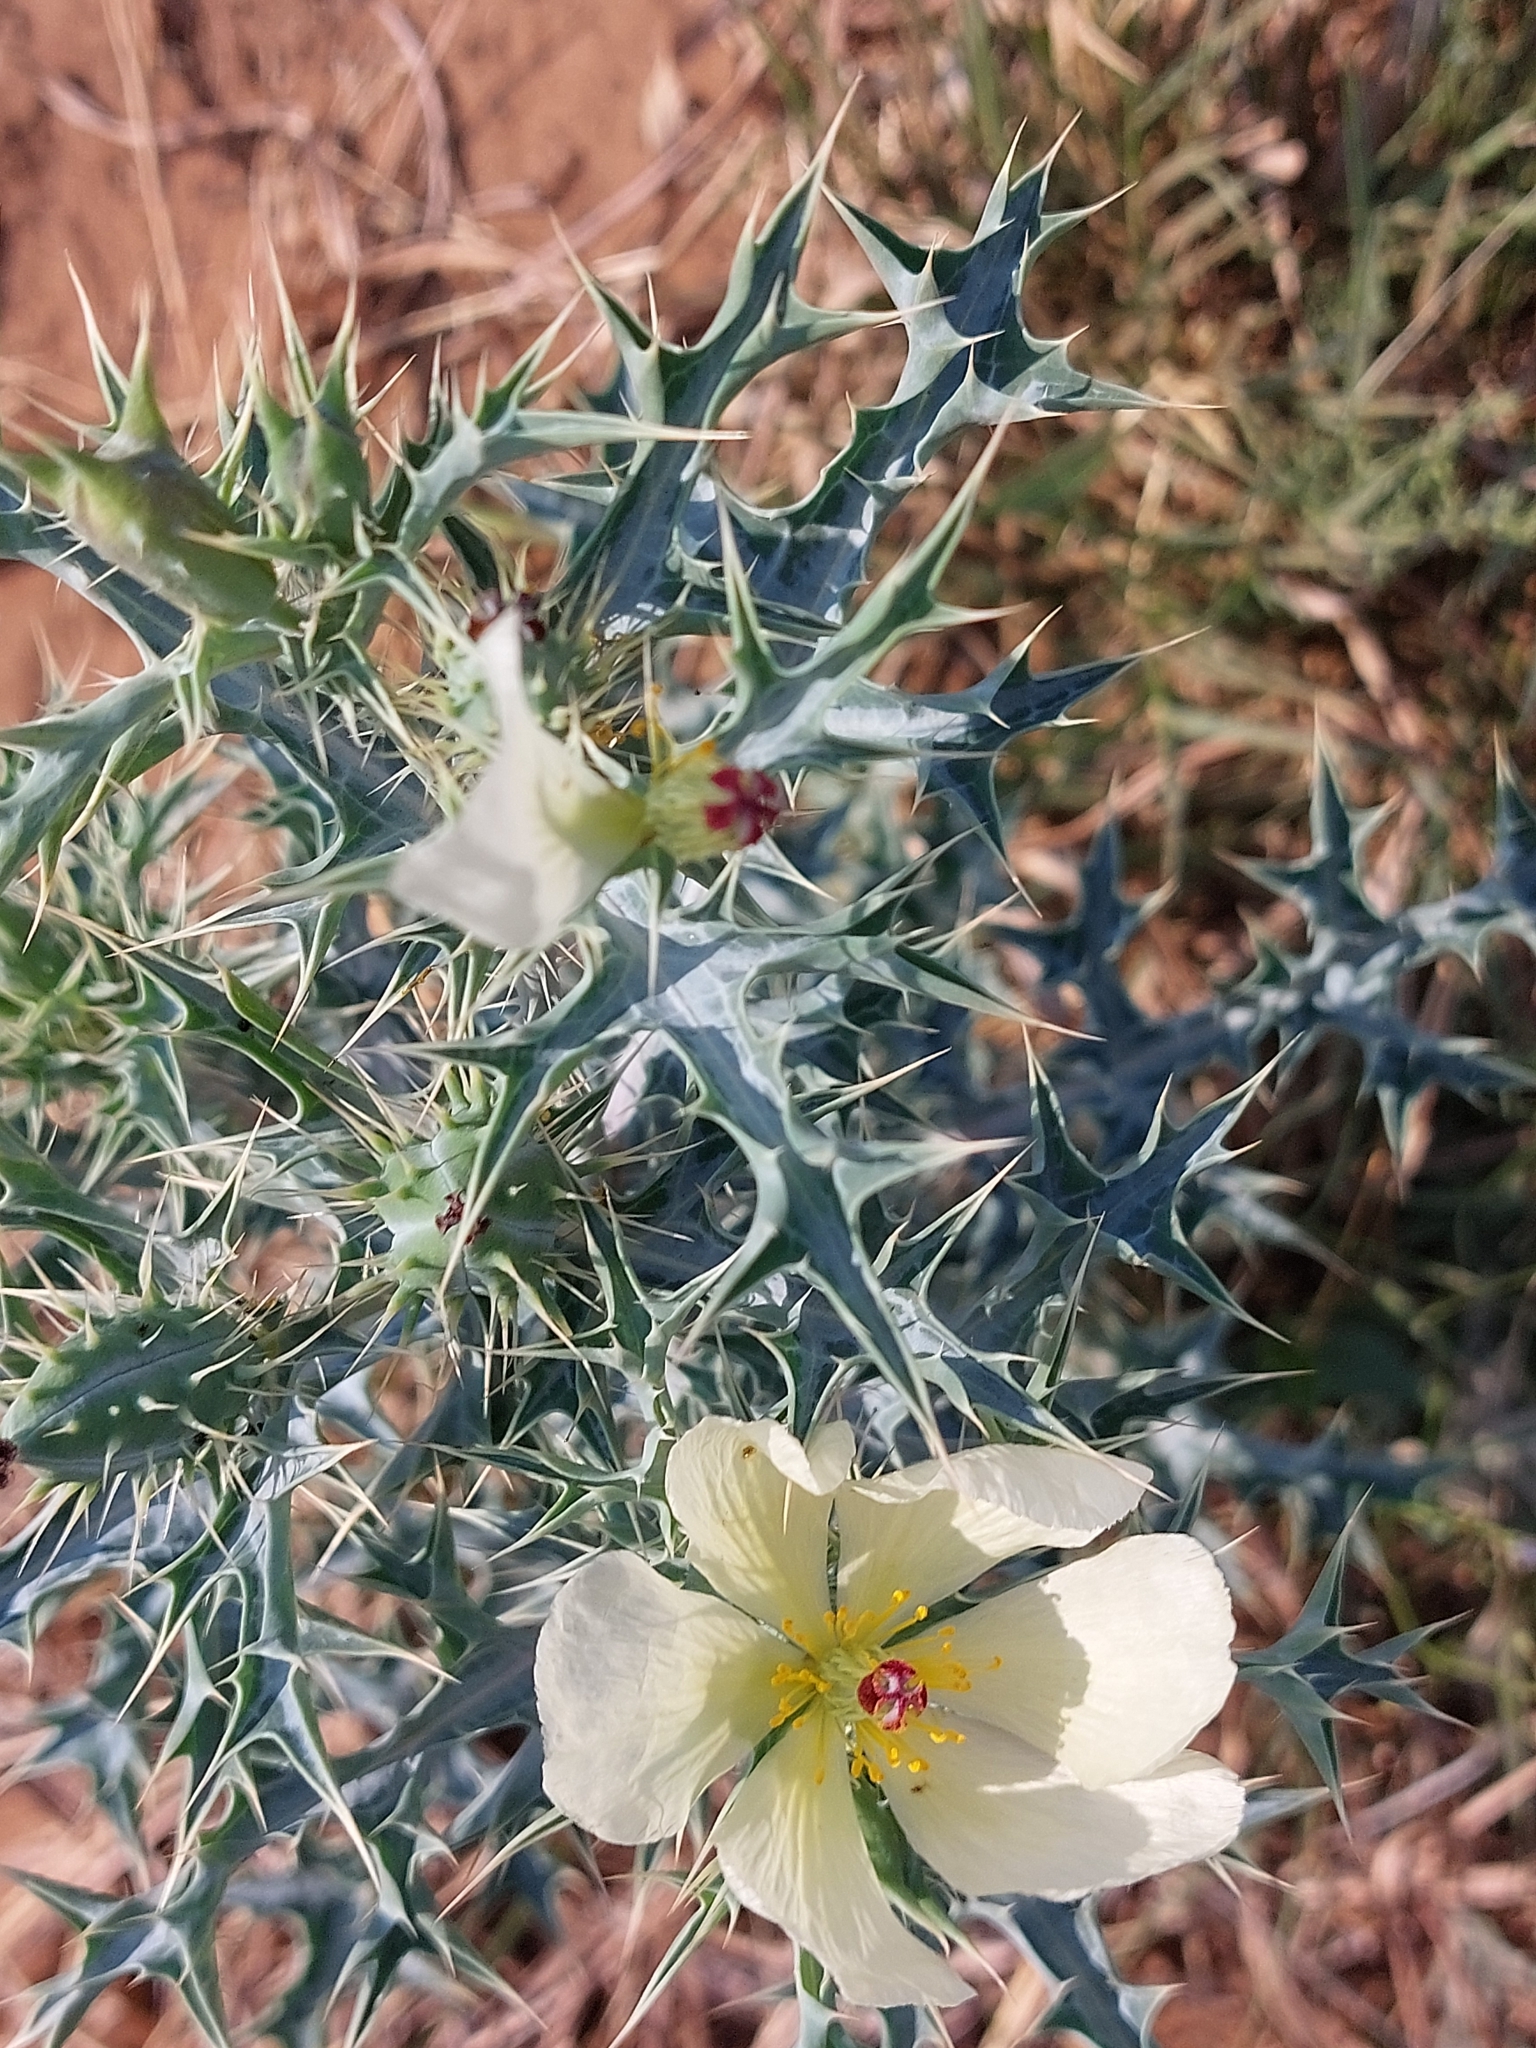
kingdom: Plantae
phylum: Tracheophyta
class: Magnoliopsida
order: Ranunculales
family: Papaveraceae
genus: Argemone
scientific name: Argemone ochroleuca
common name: White-flower mexican-poppy
